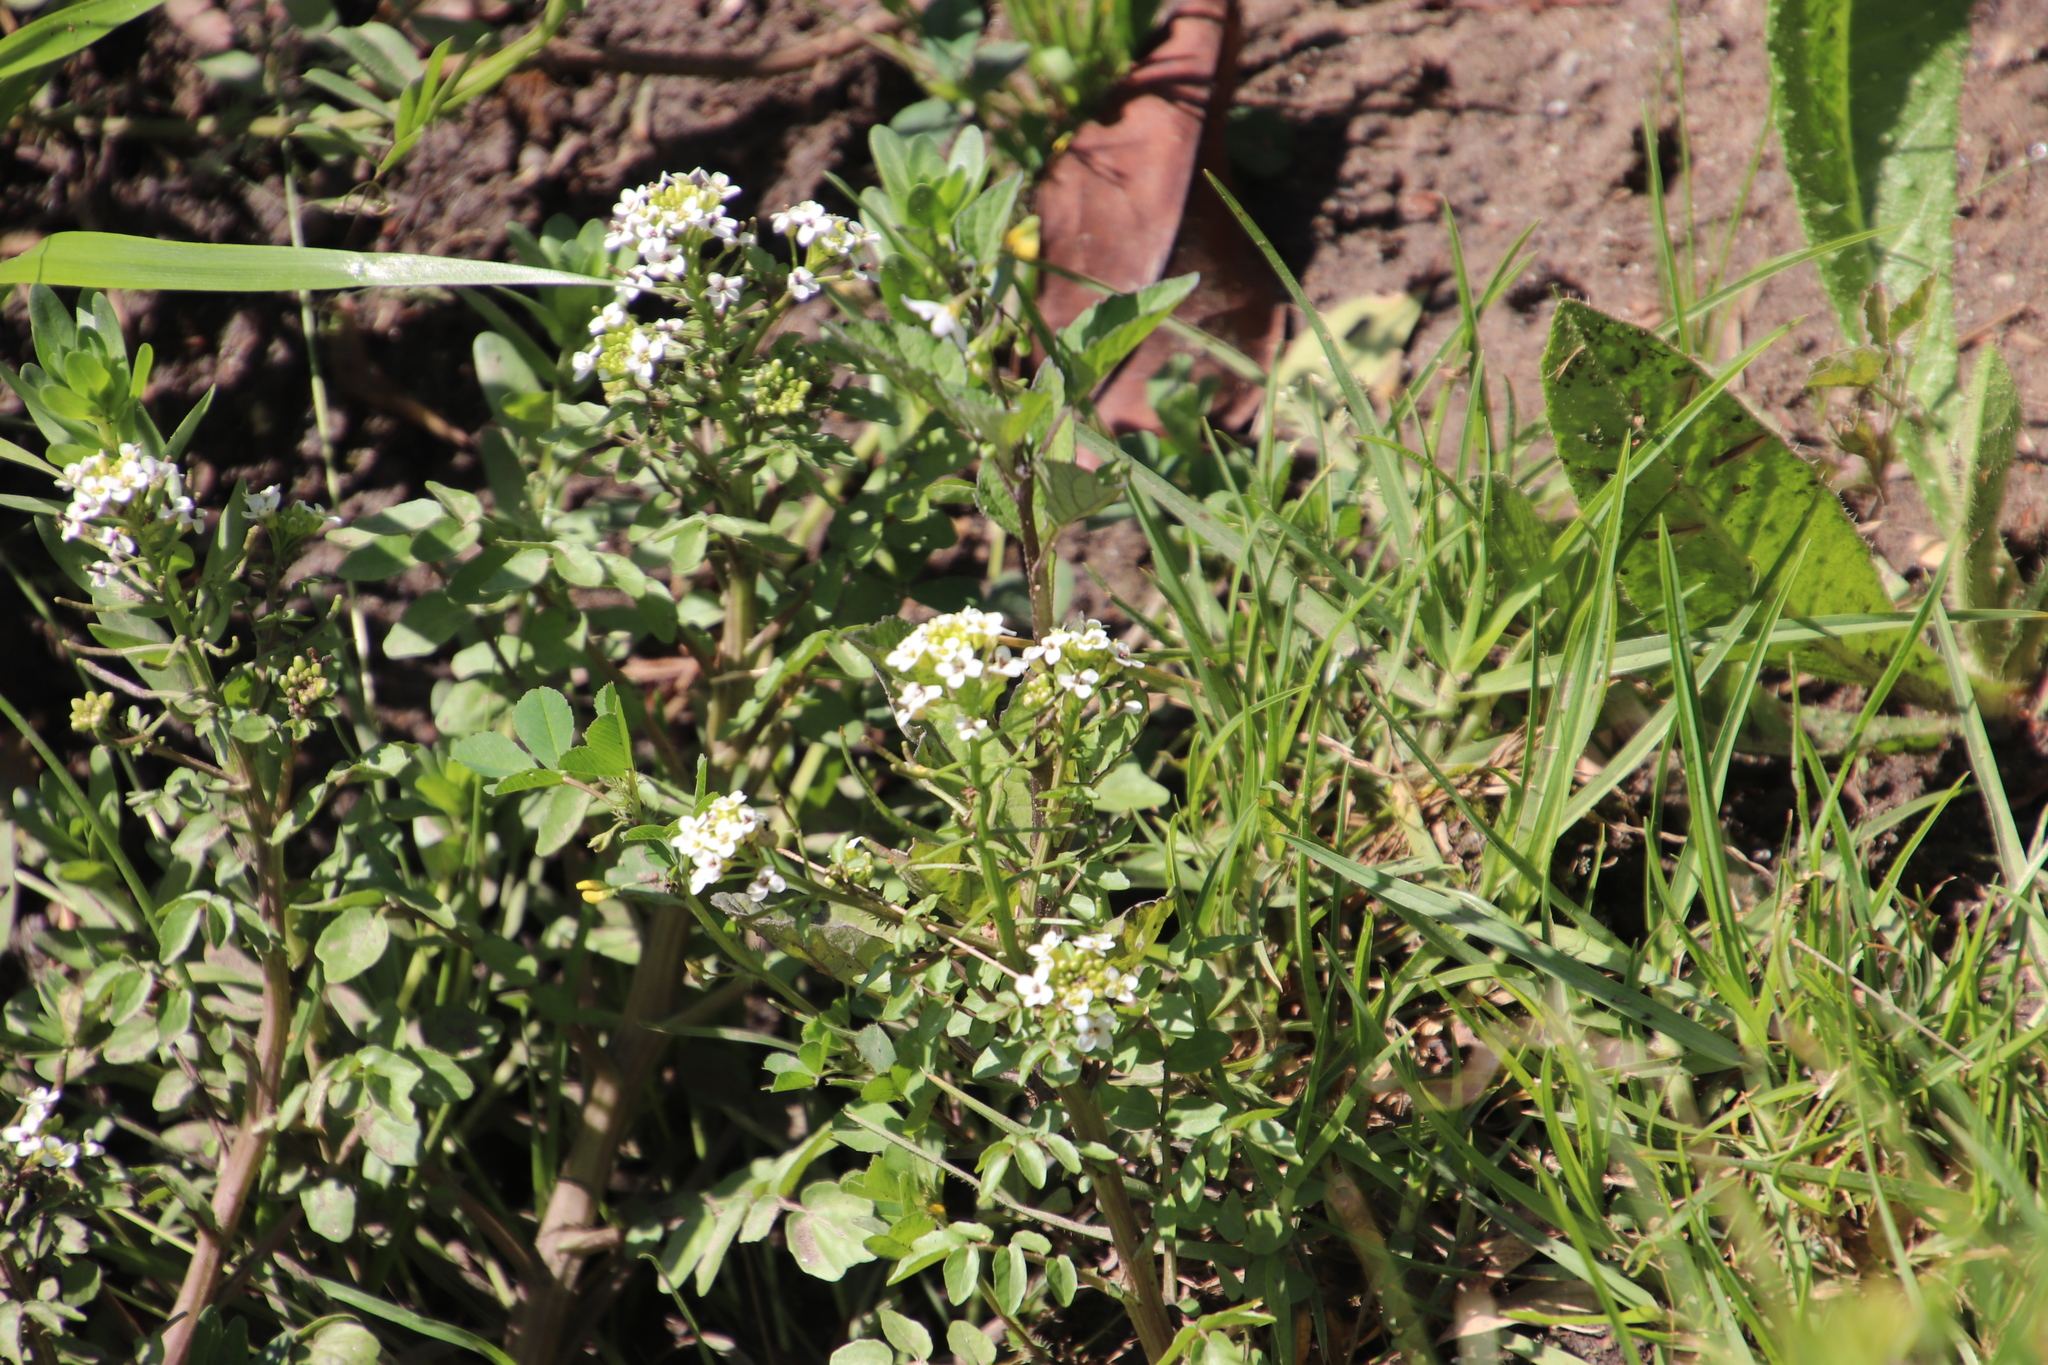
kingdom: Plantae
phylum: Tracheophyta
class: Magnoliopsida
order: Brassicales
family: Brassicaceae
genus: Nasturtium
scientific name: Nasturtium officinale
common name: Watercress
